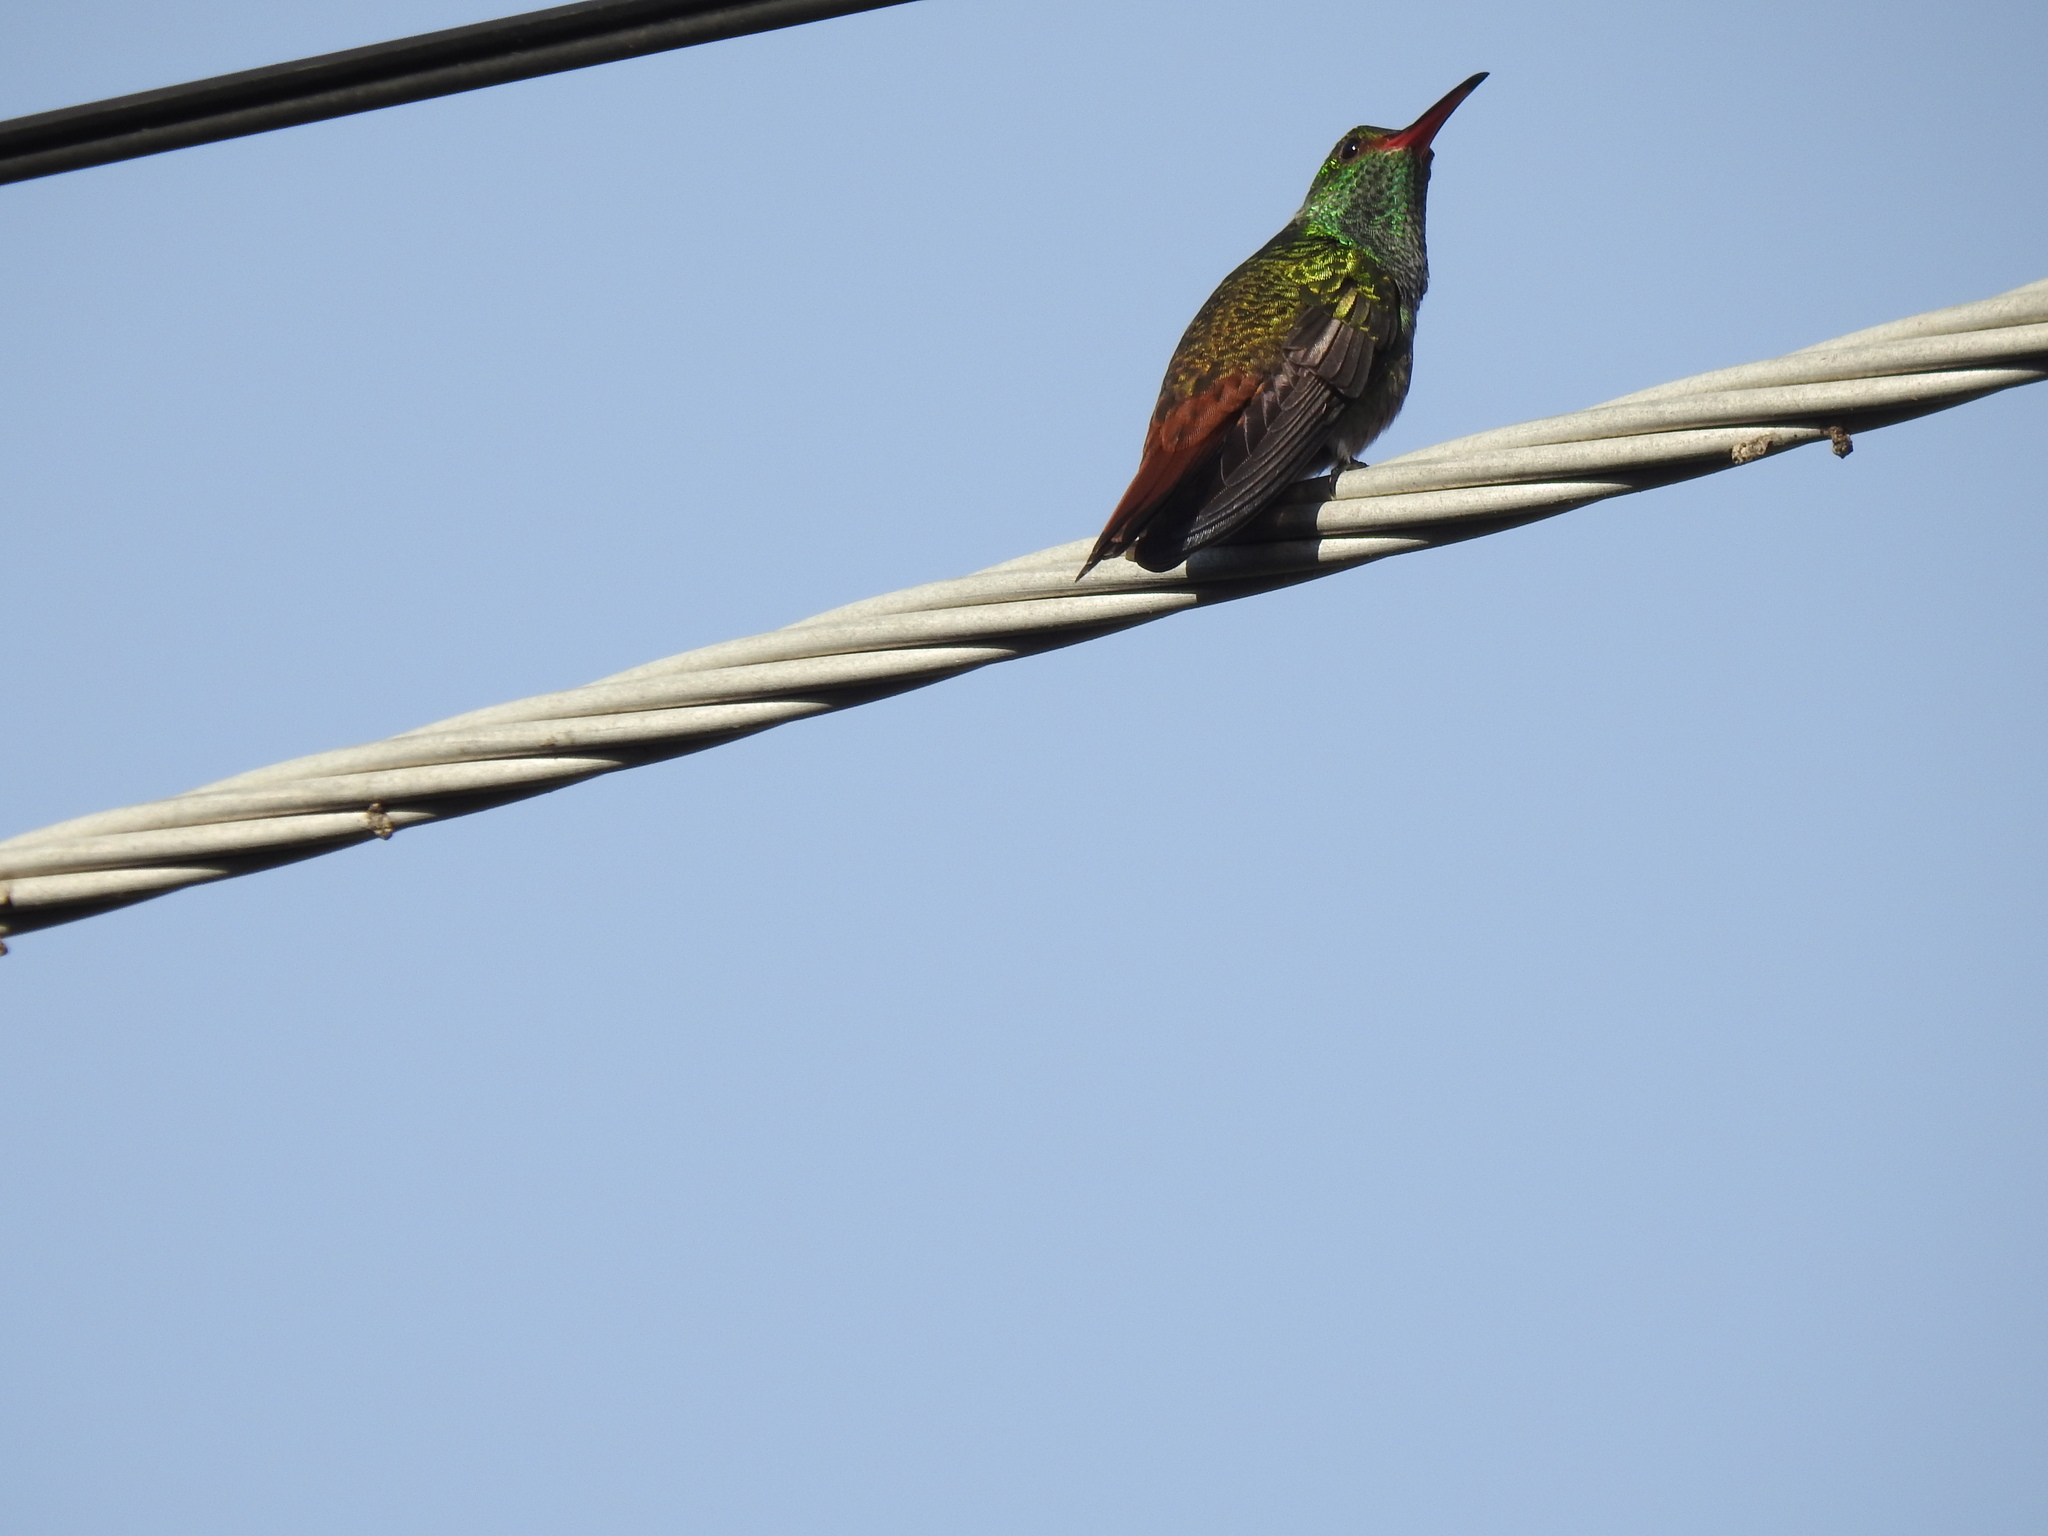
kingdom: Animalia
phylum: Chordata
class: Aves
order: Apodiformes
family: Trochilidae
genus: Amazilia
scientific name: Amazilia tzacatl
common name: Rufous-tailed hummingbird
